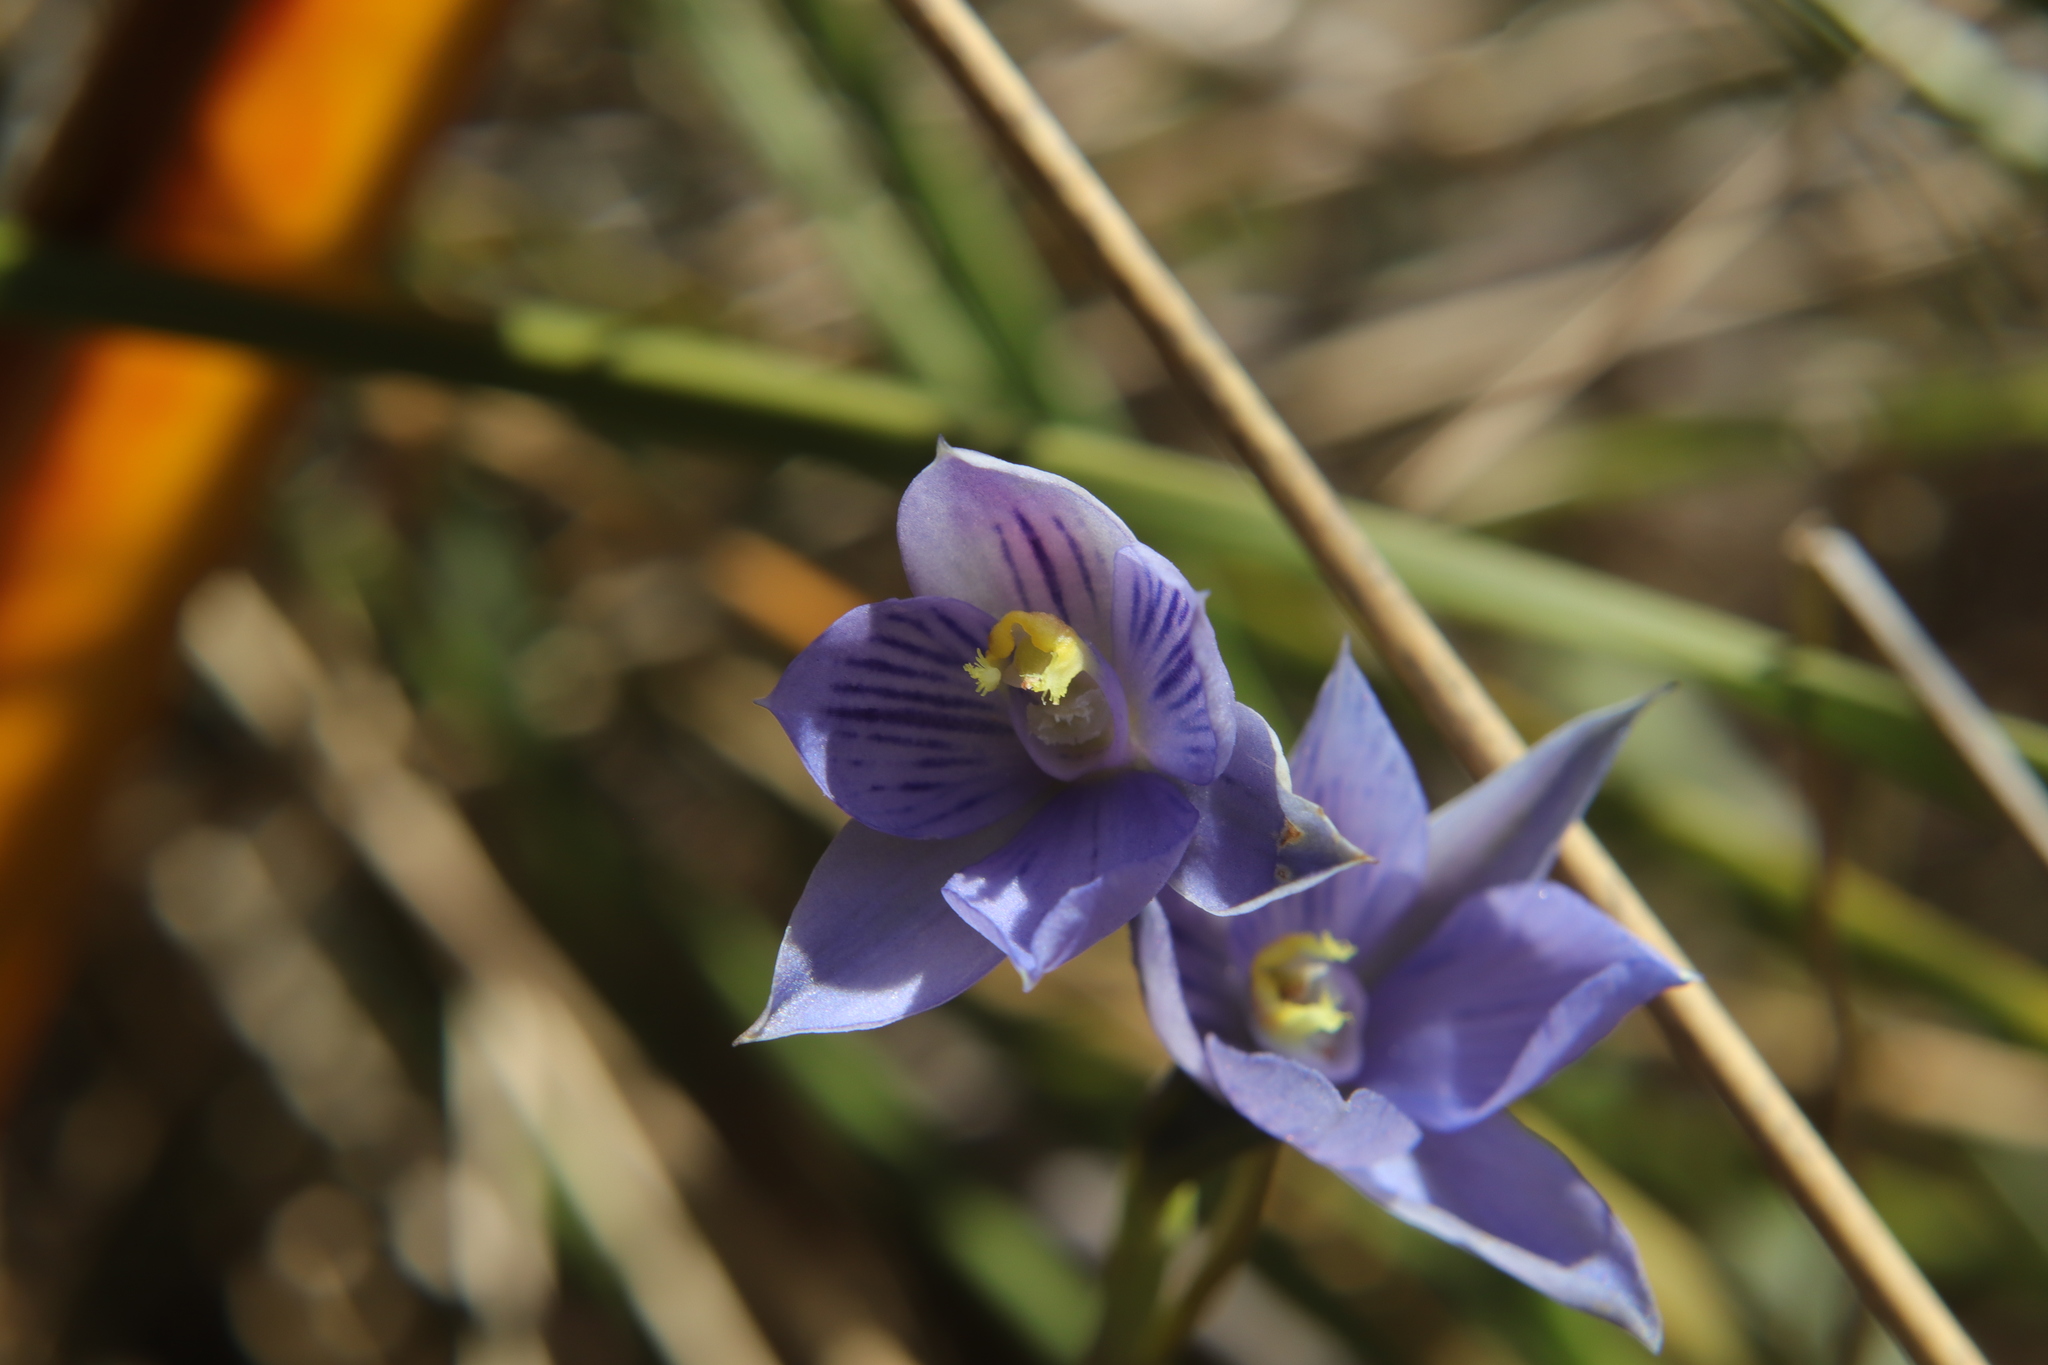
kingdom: Plantae
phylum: Tracheophyta
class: Liliopsida
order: Asparagales
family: Orchidaceae
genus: Thelymitra
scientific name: Thelymitra pulchella
